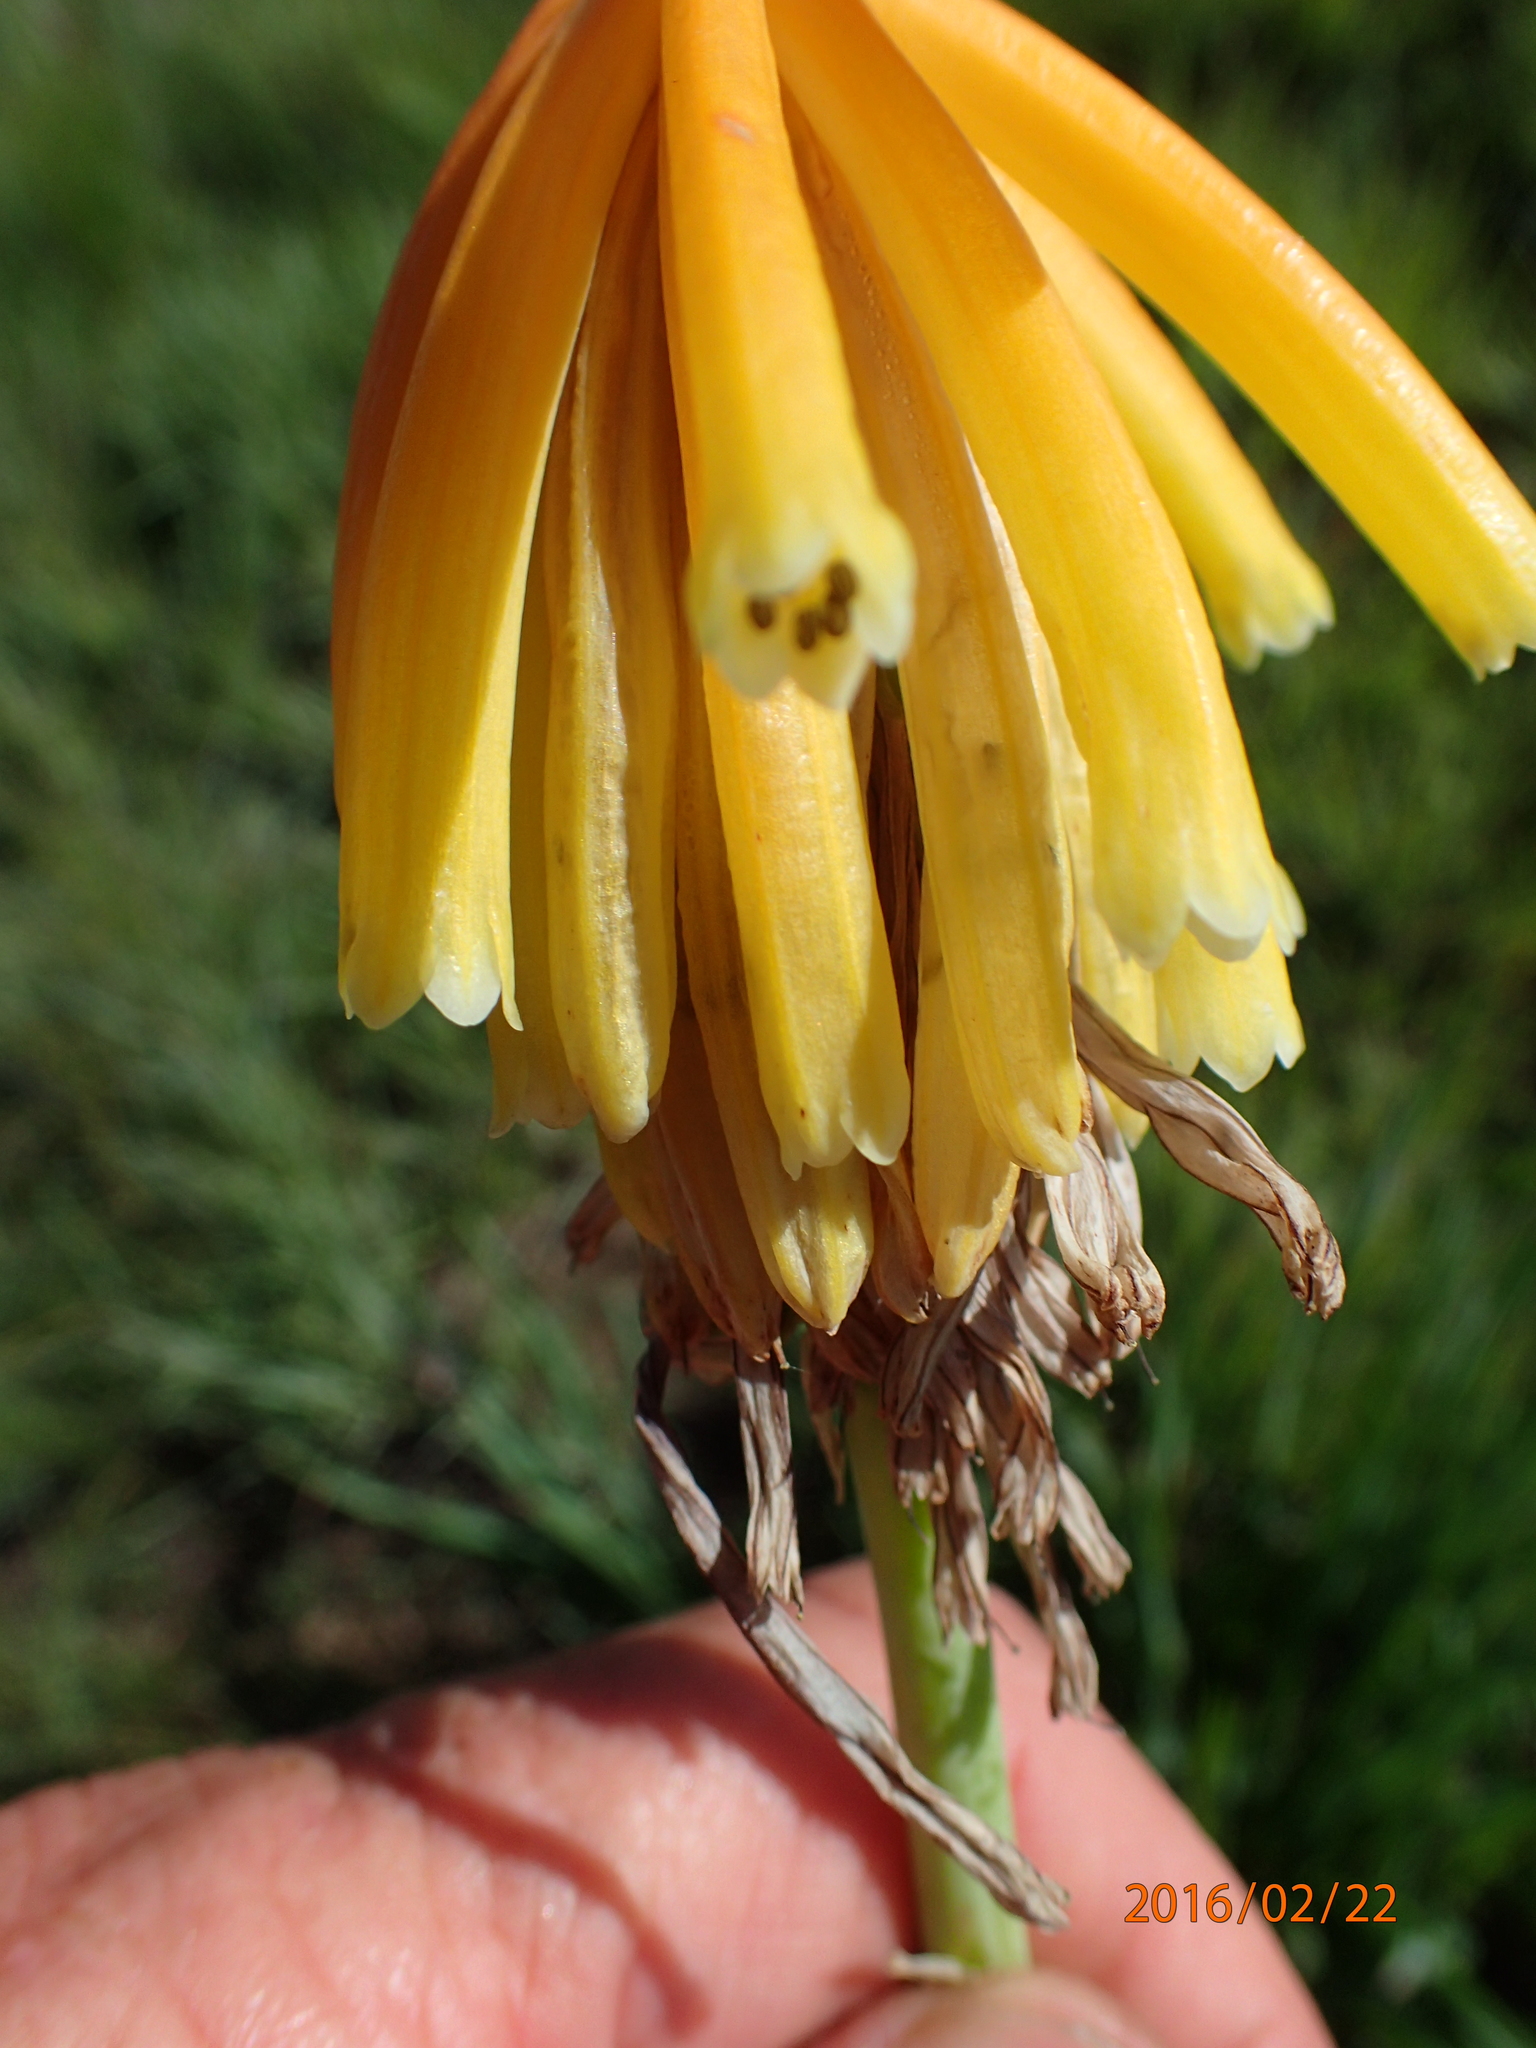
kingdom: Plantae
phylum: Tracheophyta
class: Liliopsida
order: Asparagales
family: Asphodelaceae
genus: Kniphofia
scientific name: Kniphofia porphyrantha
